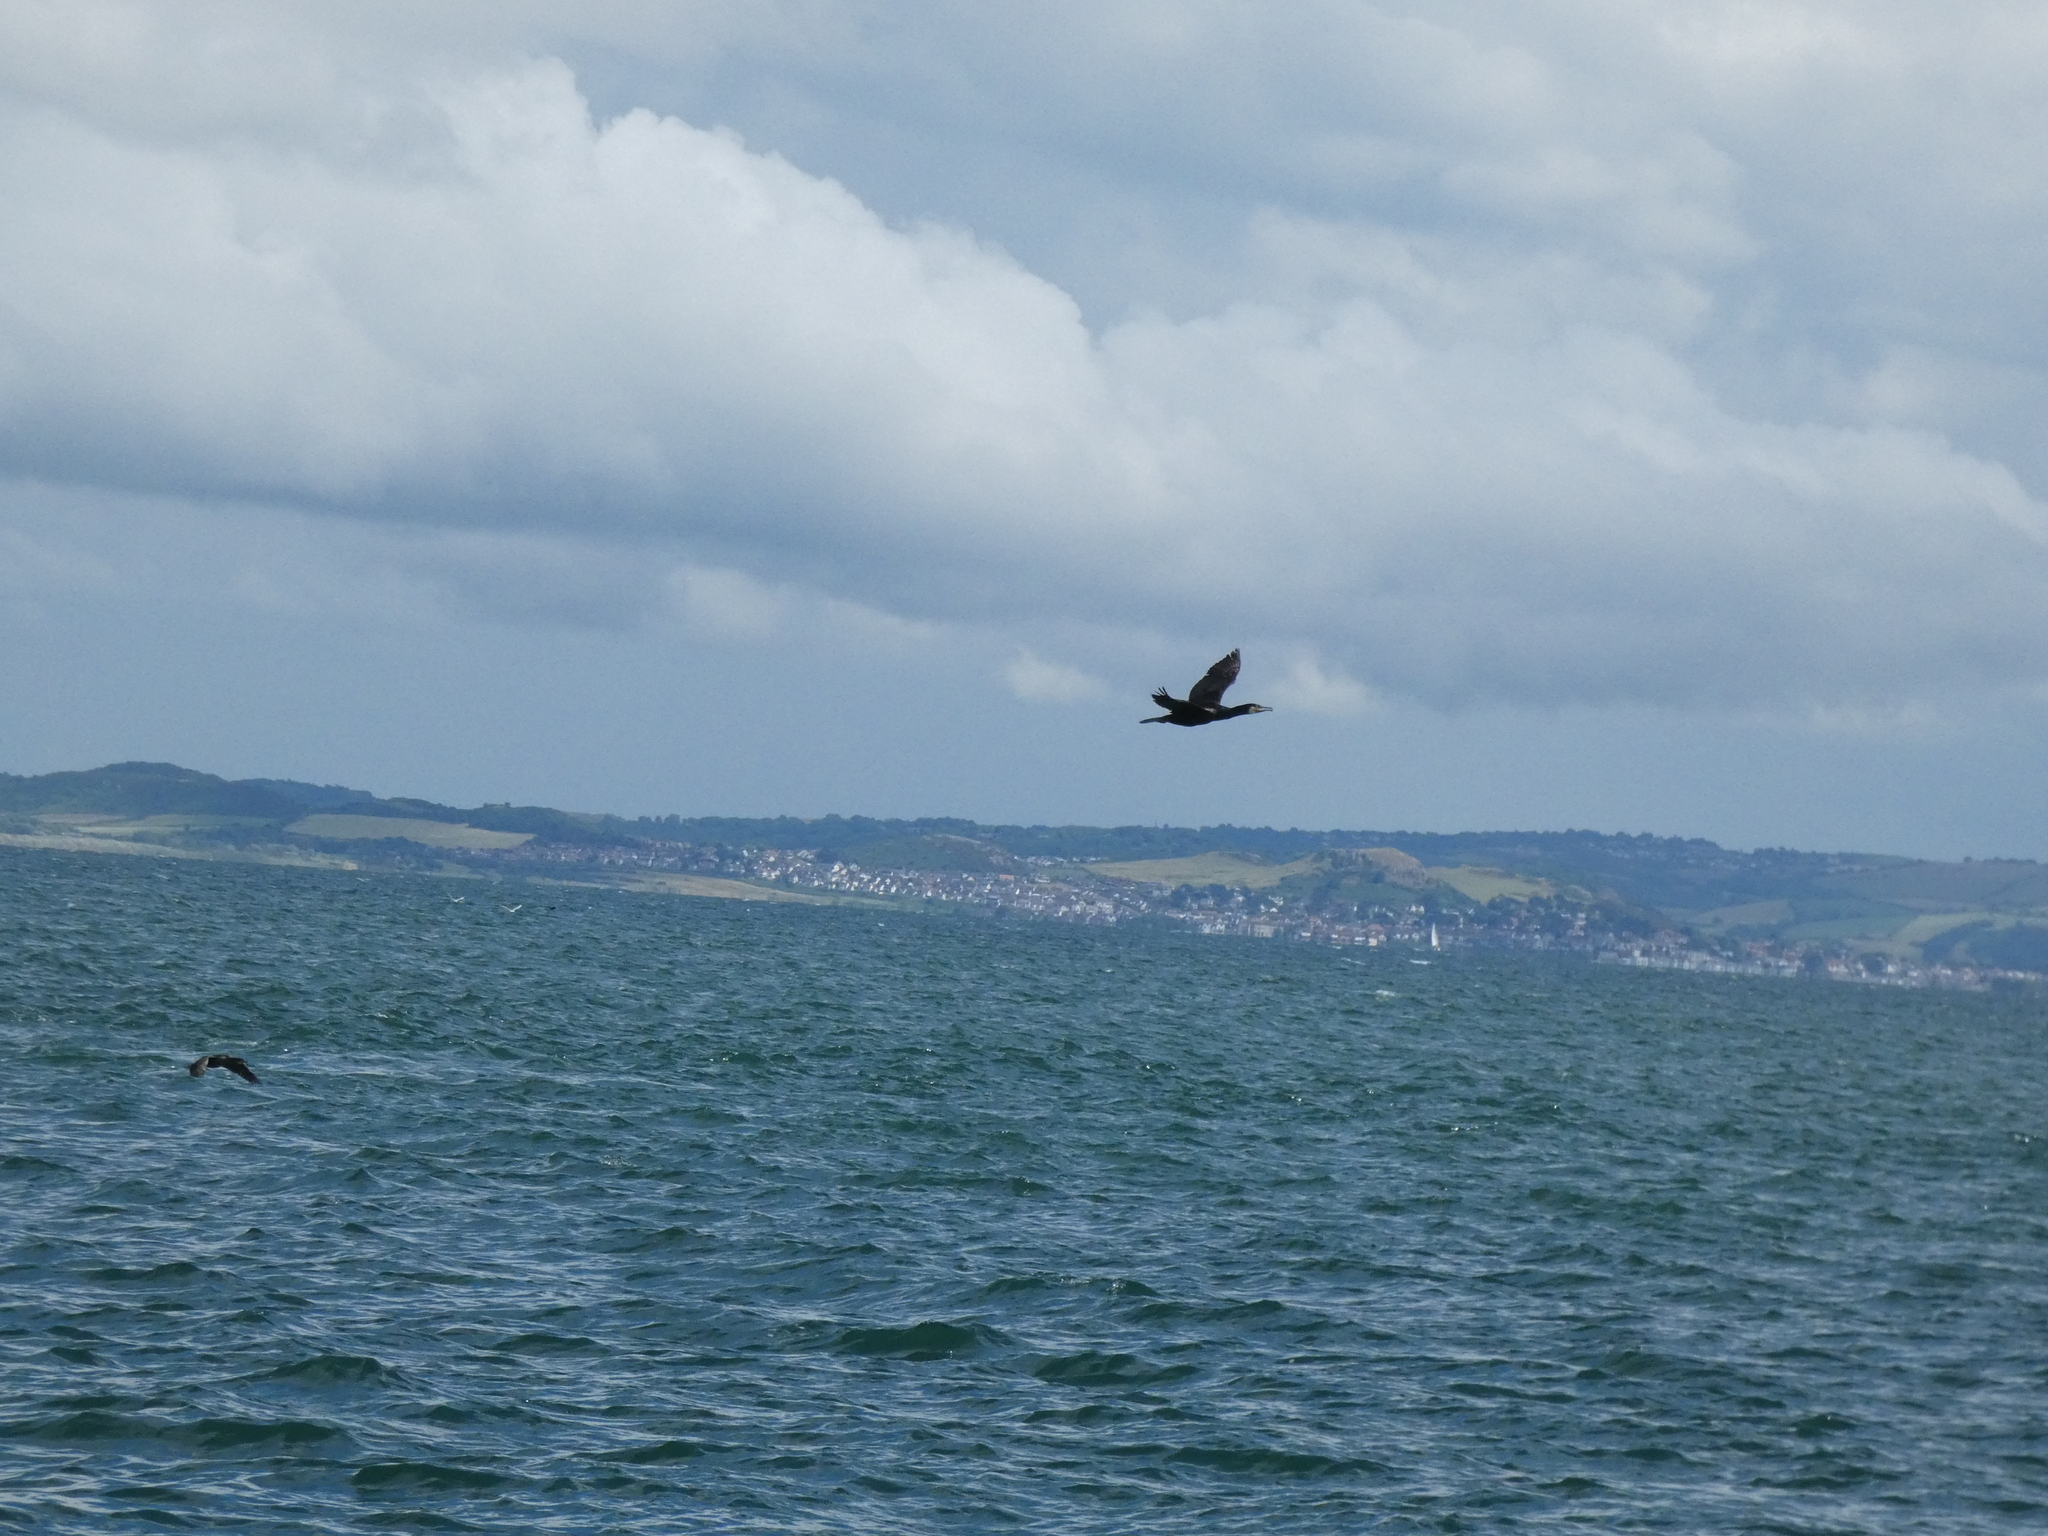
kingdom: Animalia
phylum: Chordata
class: Aves
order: Suliformes
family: Phalacrocoracidae
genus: Phalacrocorax
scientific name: Phalacrocorax carbo
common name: Great cormorant
